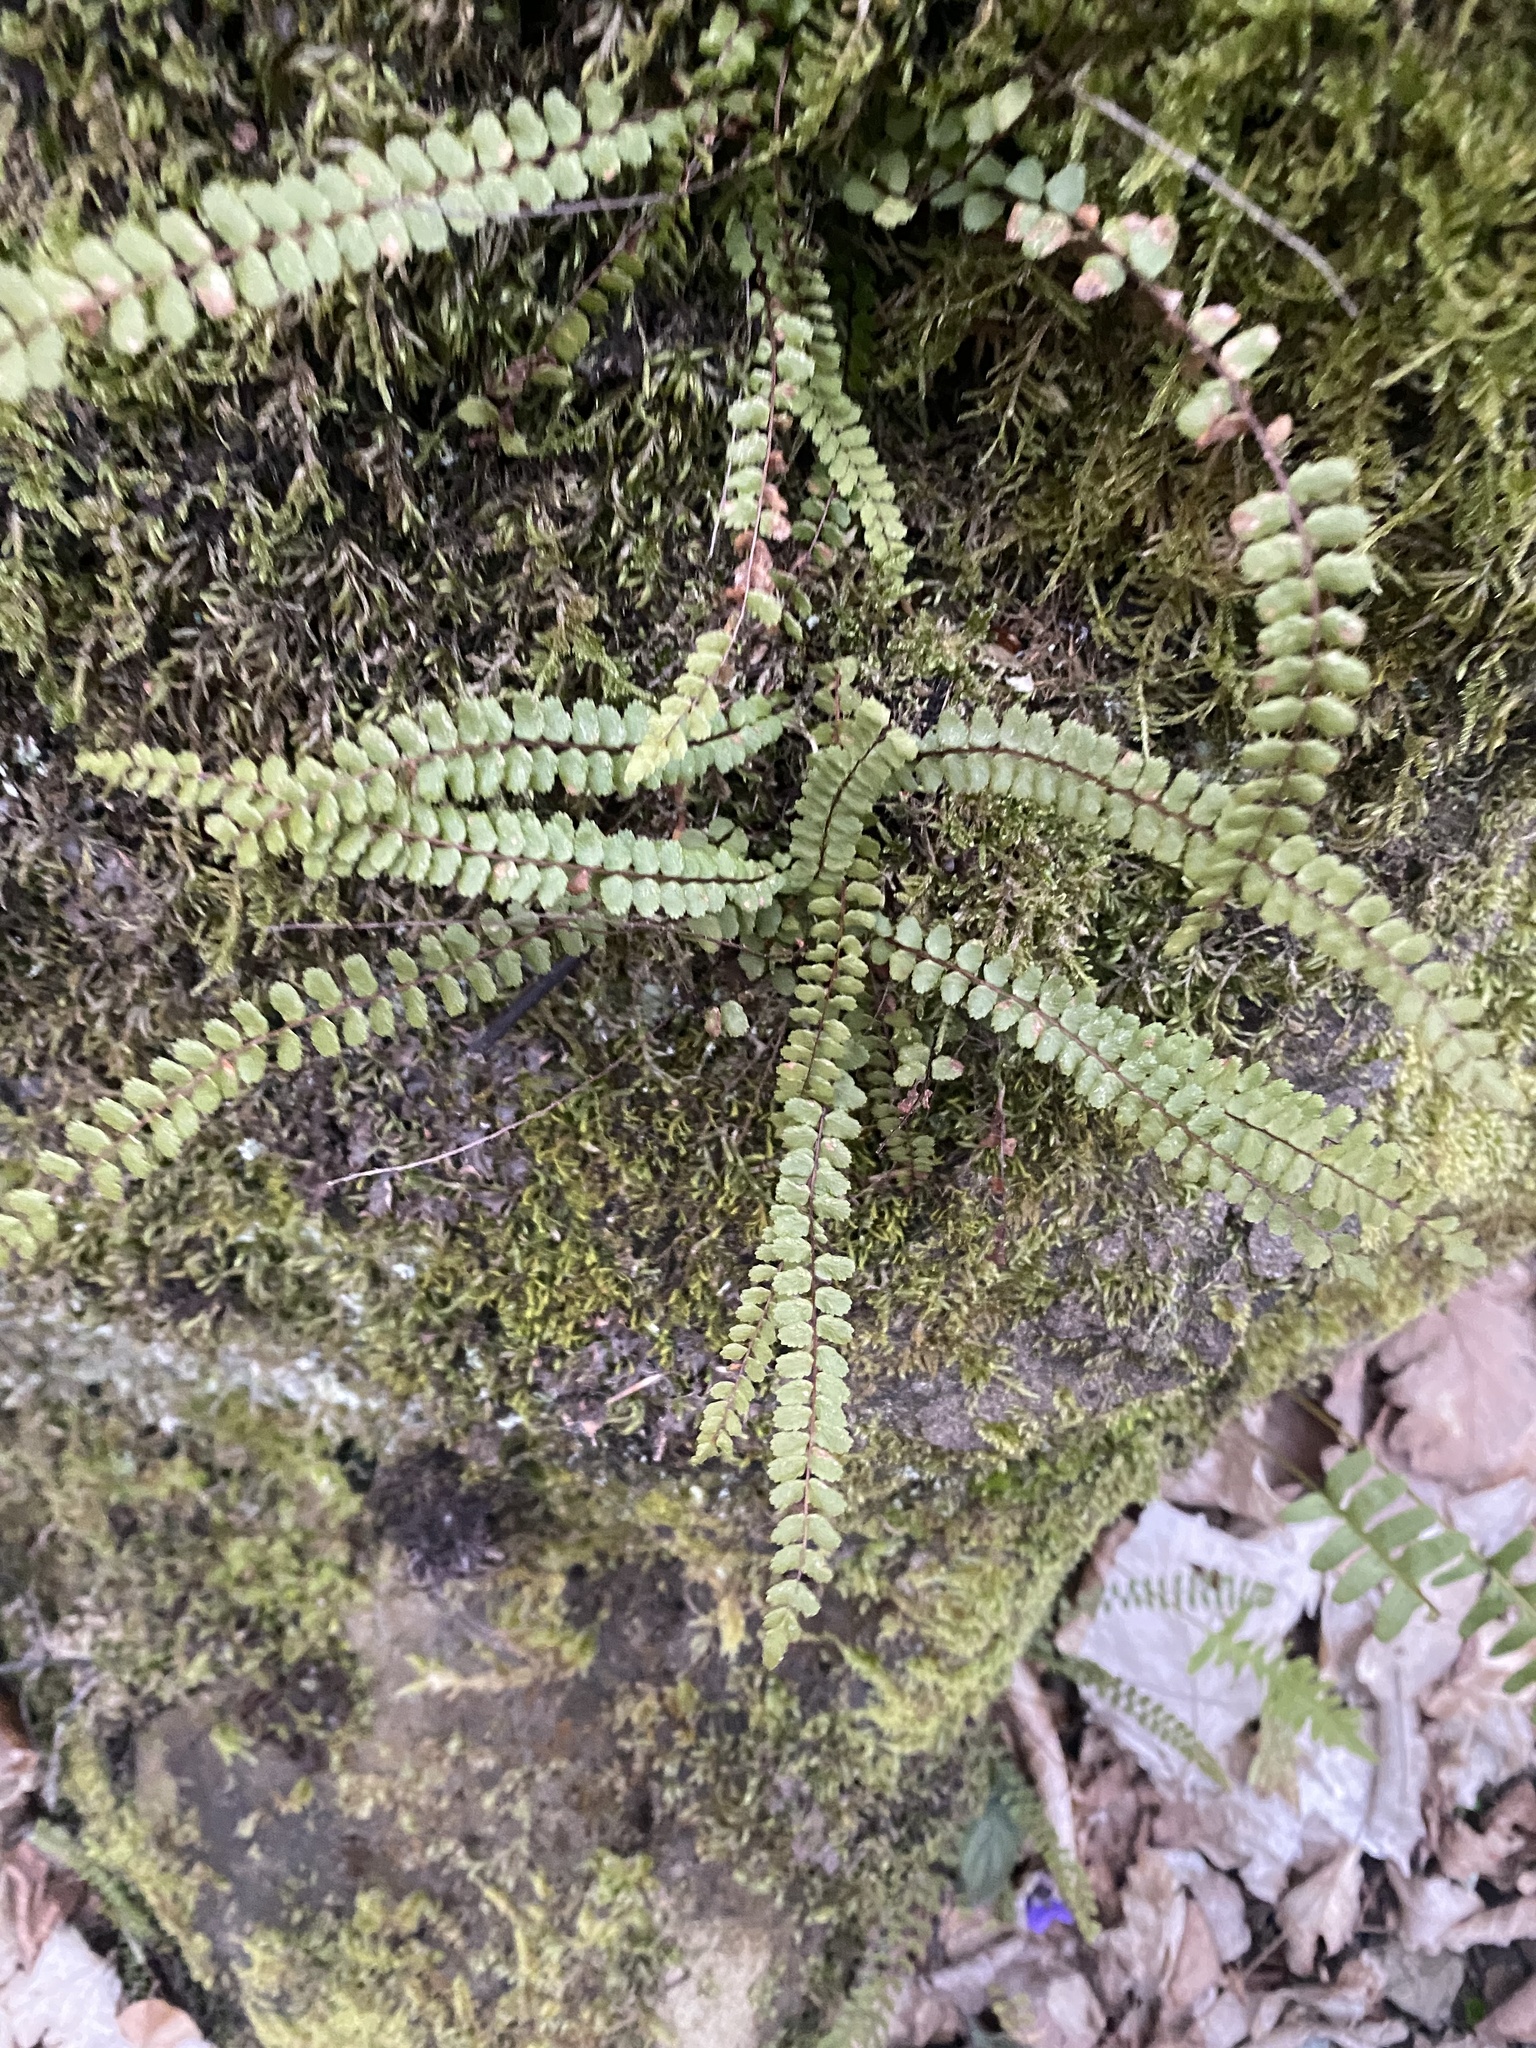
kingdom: Plantae
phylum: Tracheophyta
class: Polypodiopsida
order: Polypodiales
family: Aspleniaceae
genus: Asplenium
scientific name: Asplenium trichomanes
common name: Maidenhair spleenwort
